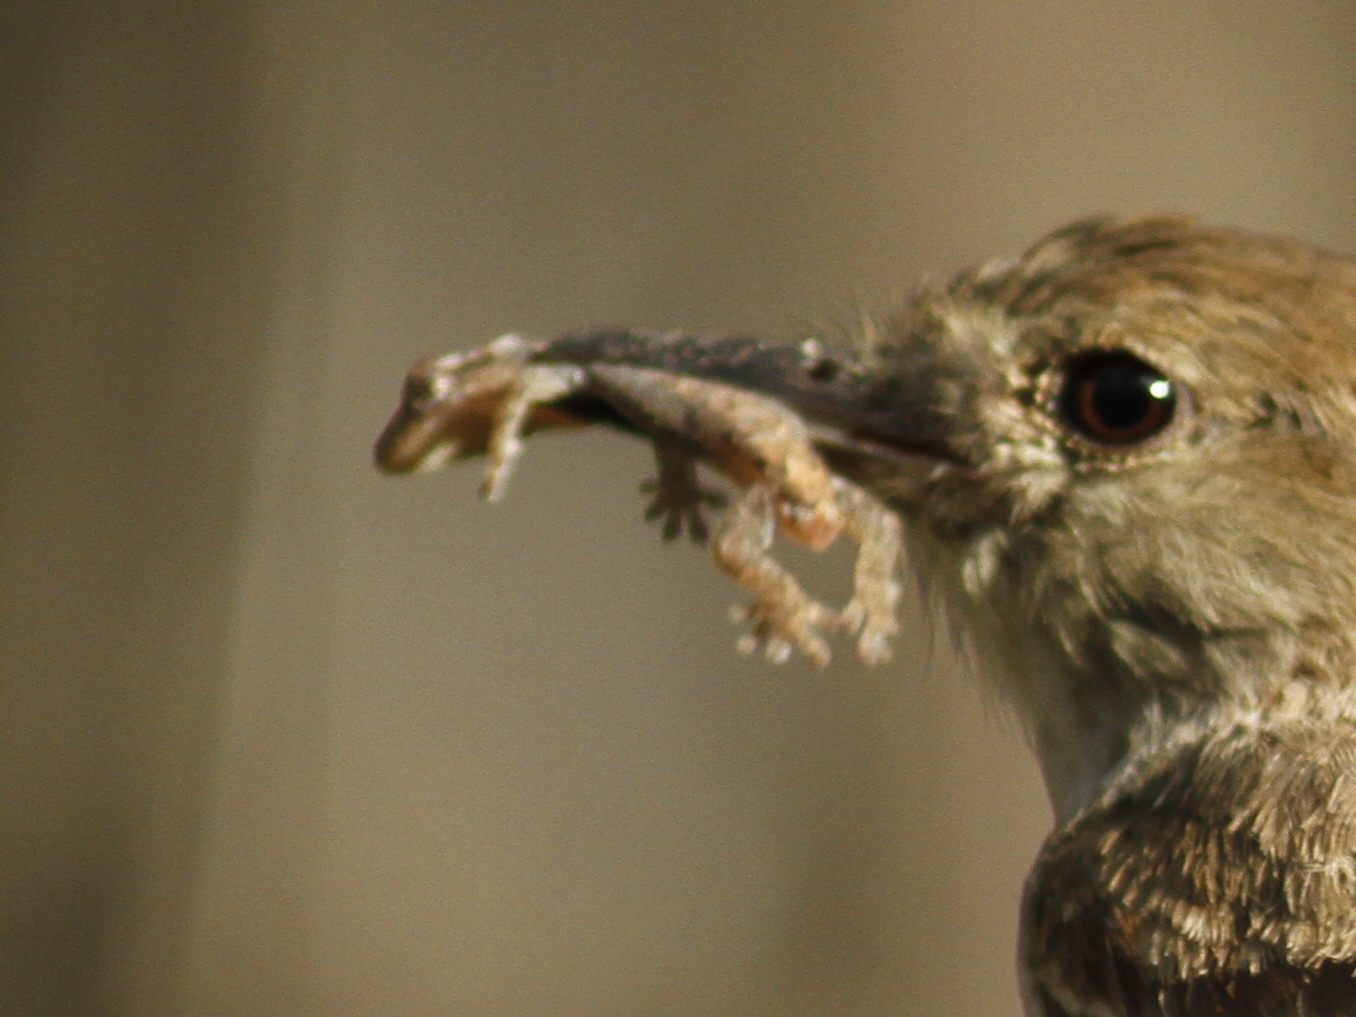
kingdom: Animalia
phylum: Chordata
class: Squamata
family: Gekkonidae
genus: Lepidodactylus
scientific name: Lepidodactylus lugubris
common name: Mourning gecko
